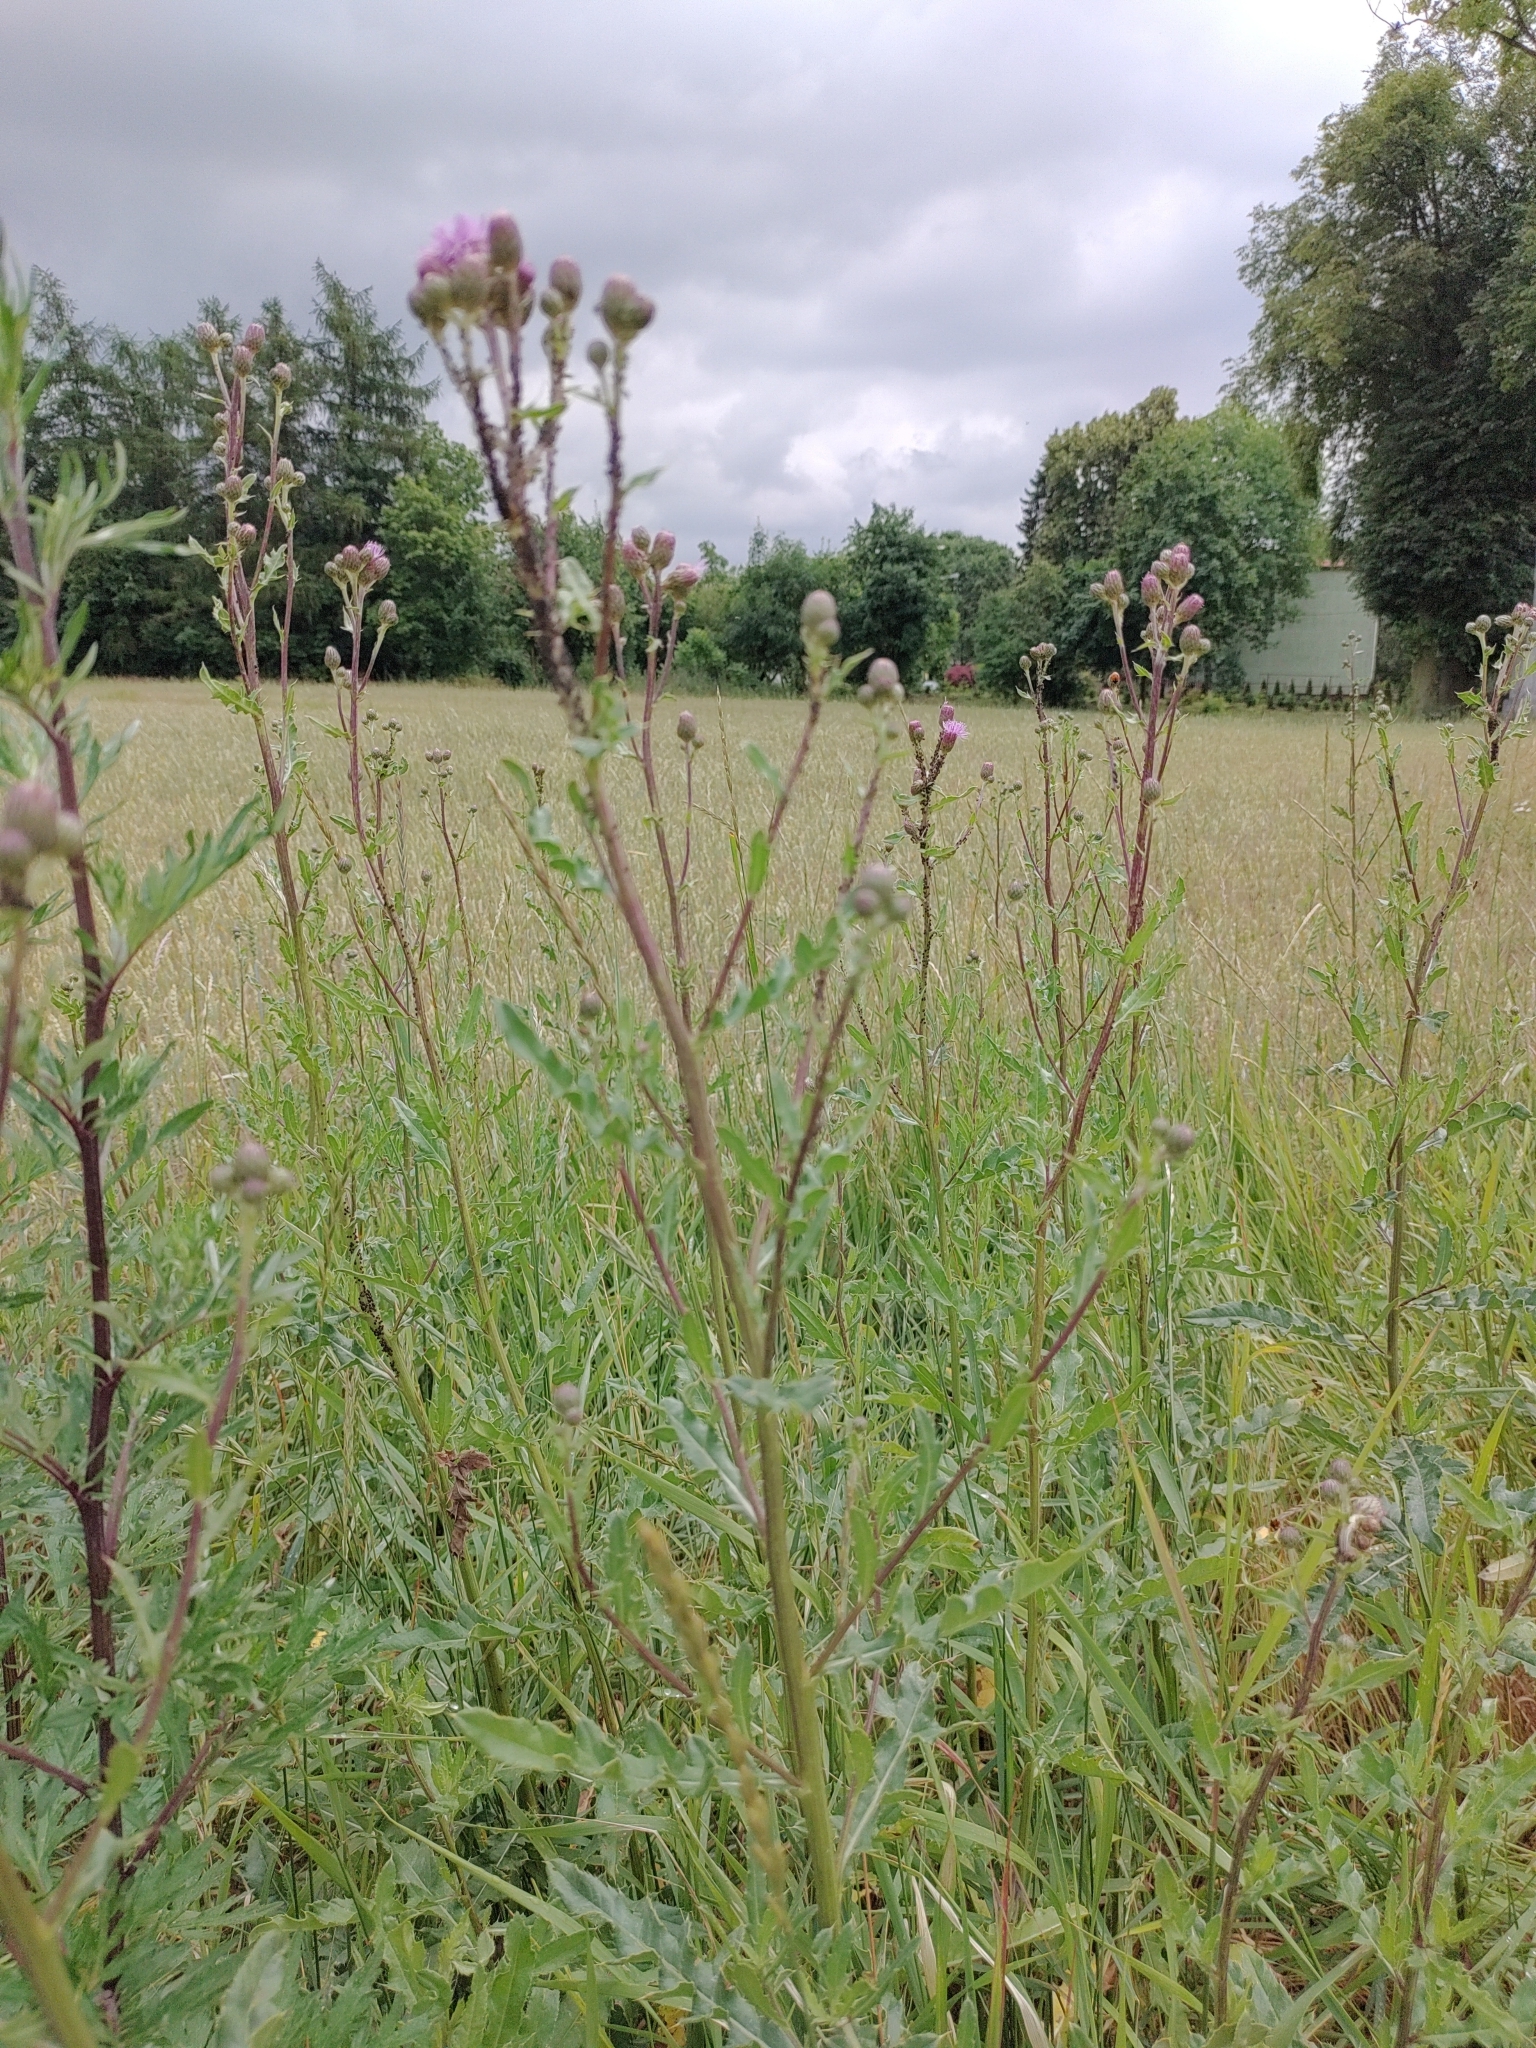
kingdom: Plantae
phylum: Tracheophyta
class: Magnoliopsida
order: Asterales
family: Asteraceae
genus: Cirsium
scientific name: Cirsium arvense
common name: Creeping thistle
